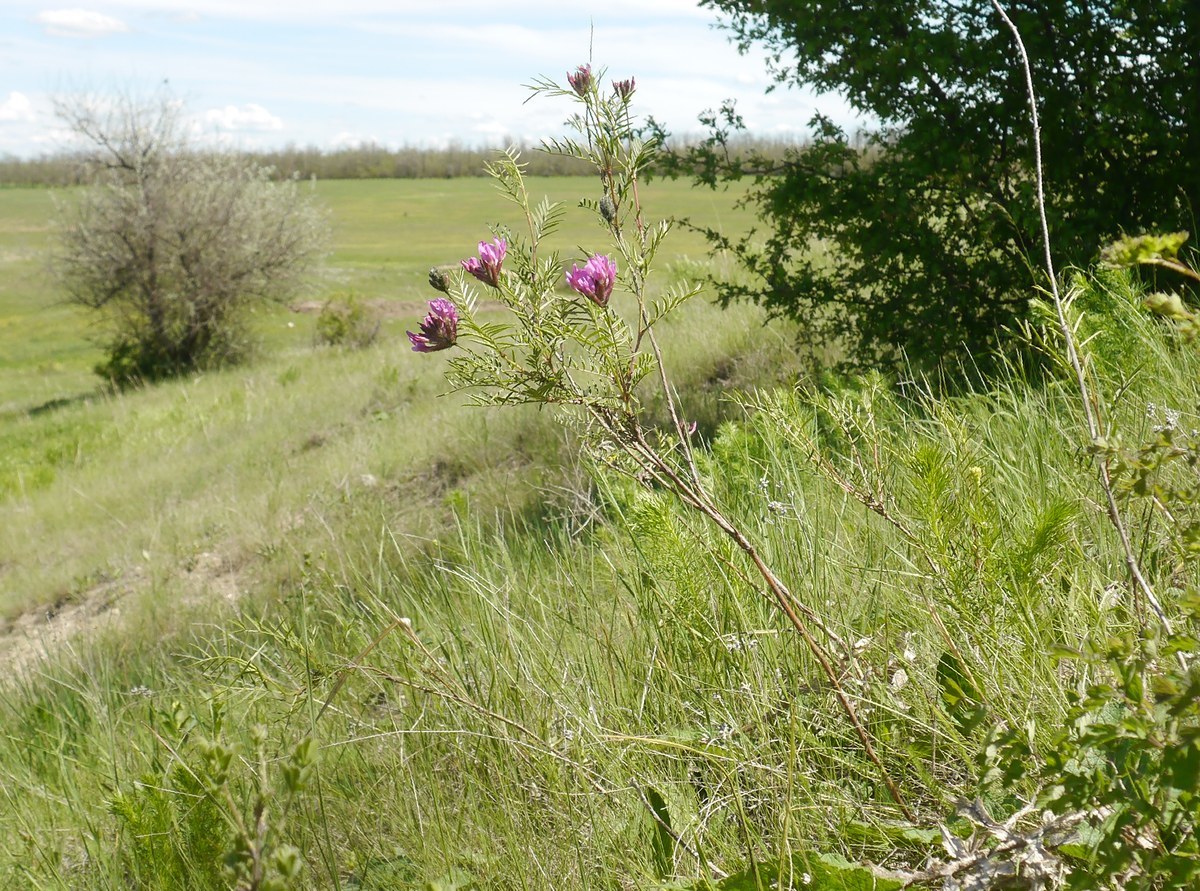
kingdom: Plantae
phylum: Tracheophyta
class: Magnoliopsida
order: Fabales
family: Fabaceae
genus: Astragalus
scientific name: Astragalus cornutus
